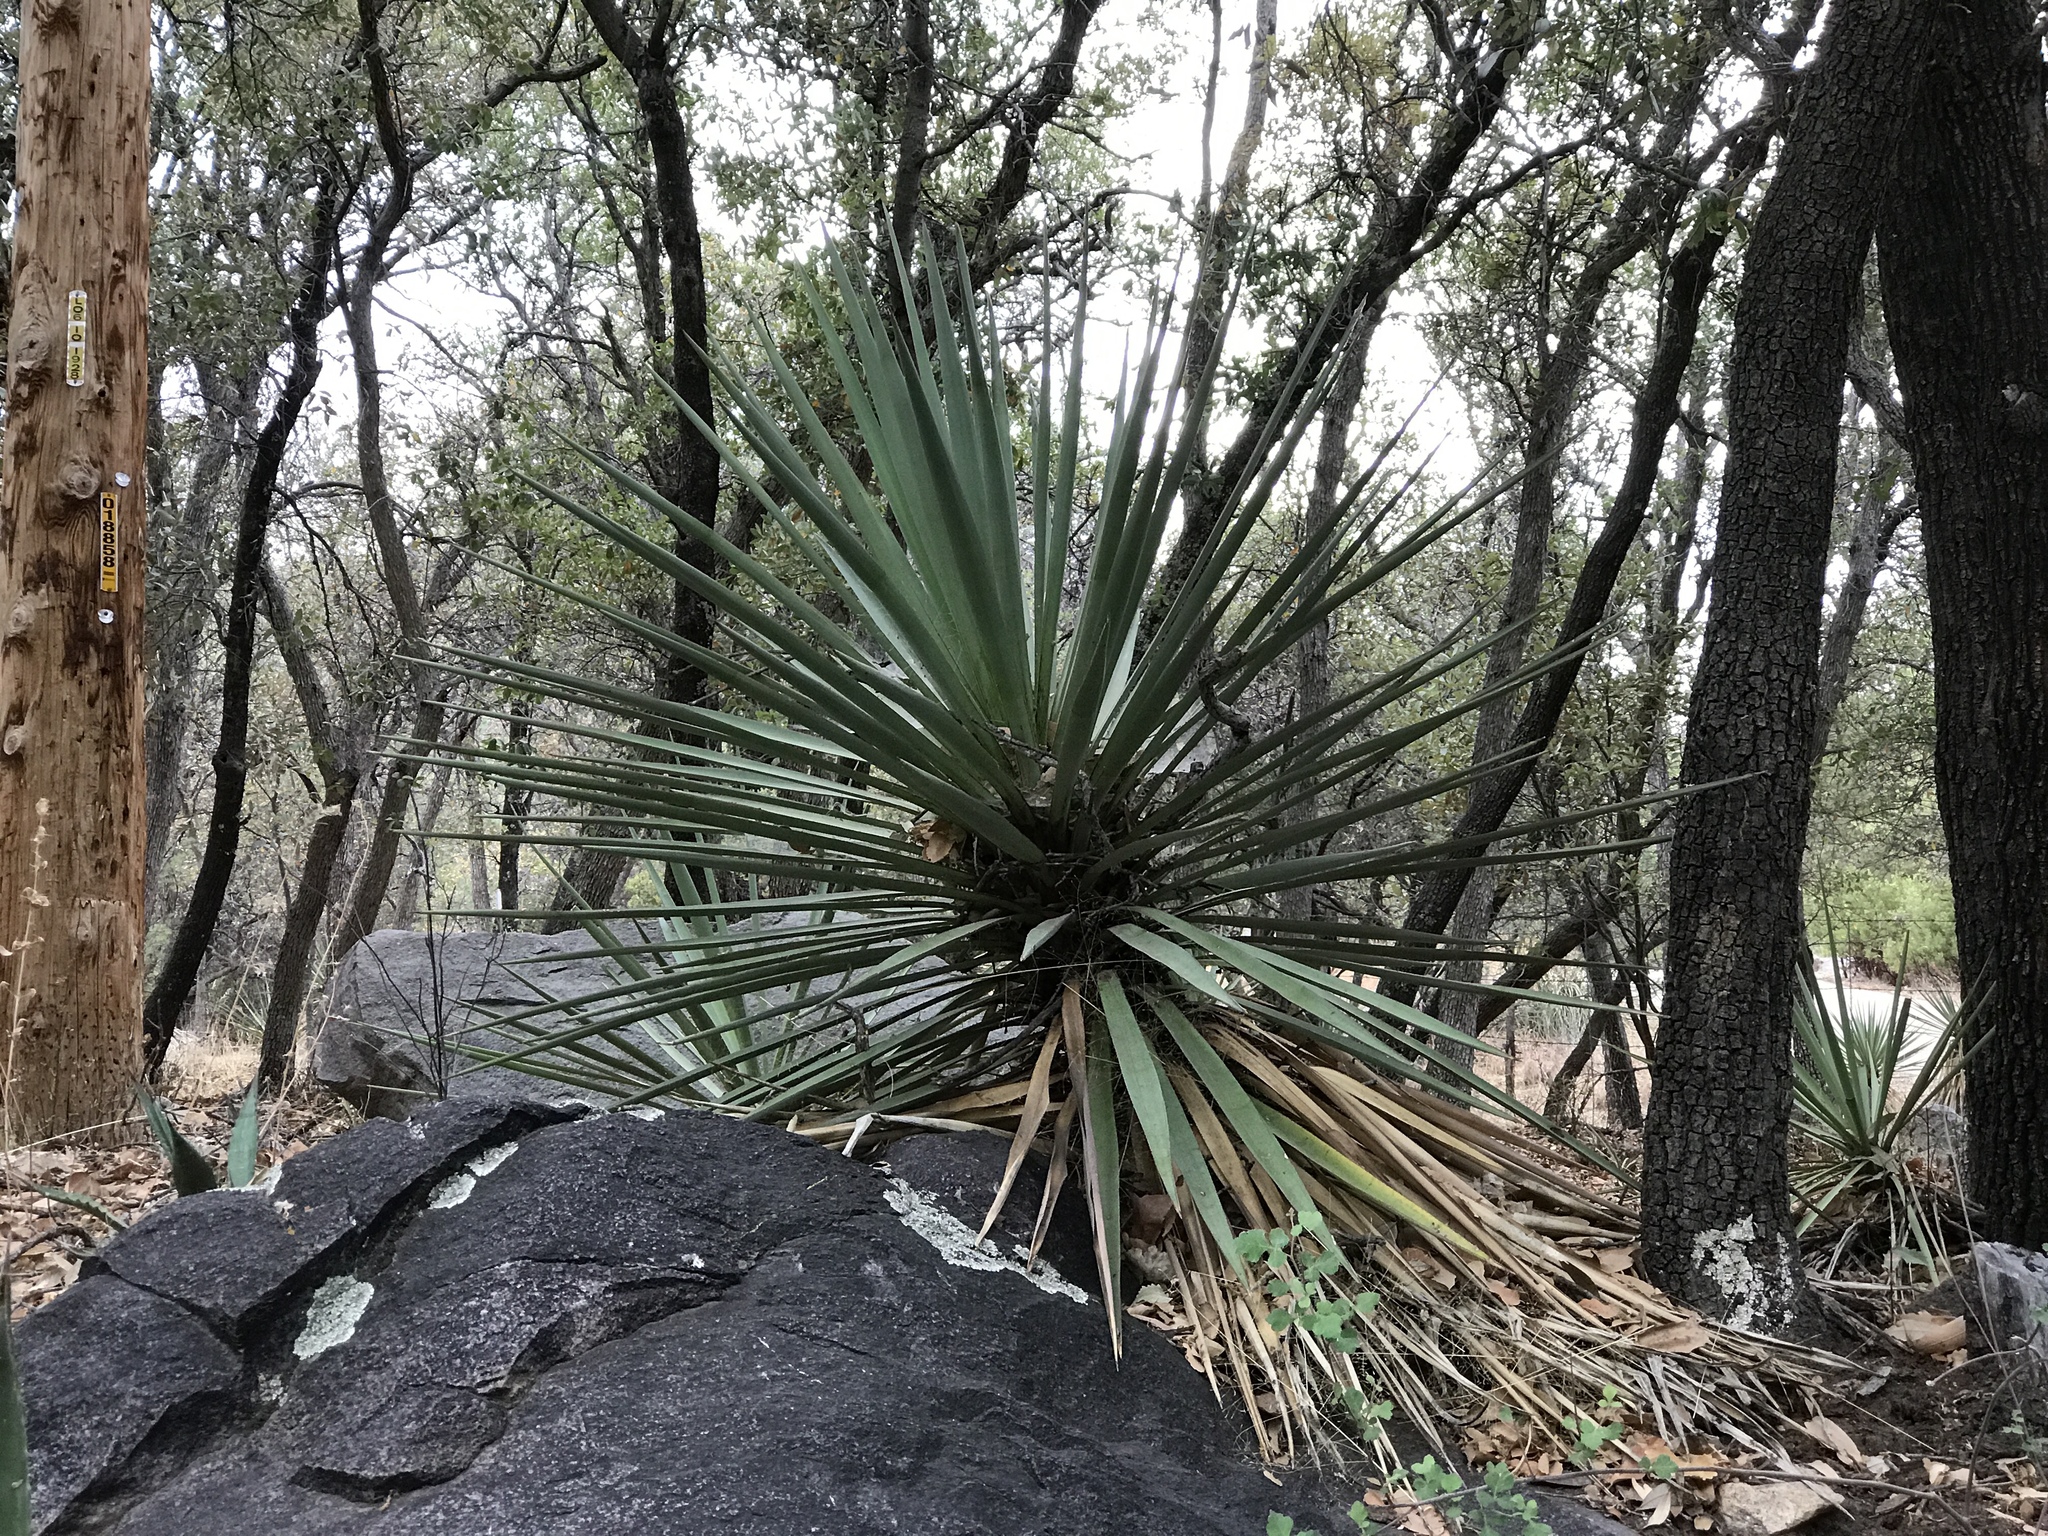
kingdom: Plantae
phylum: Tracheophyta
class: Liliopsida
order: Asparagales
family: Asparagaceae
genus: Yucca
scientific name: Yucca madrensis
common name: Hoary yucca
